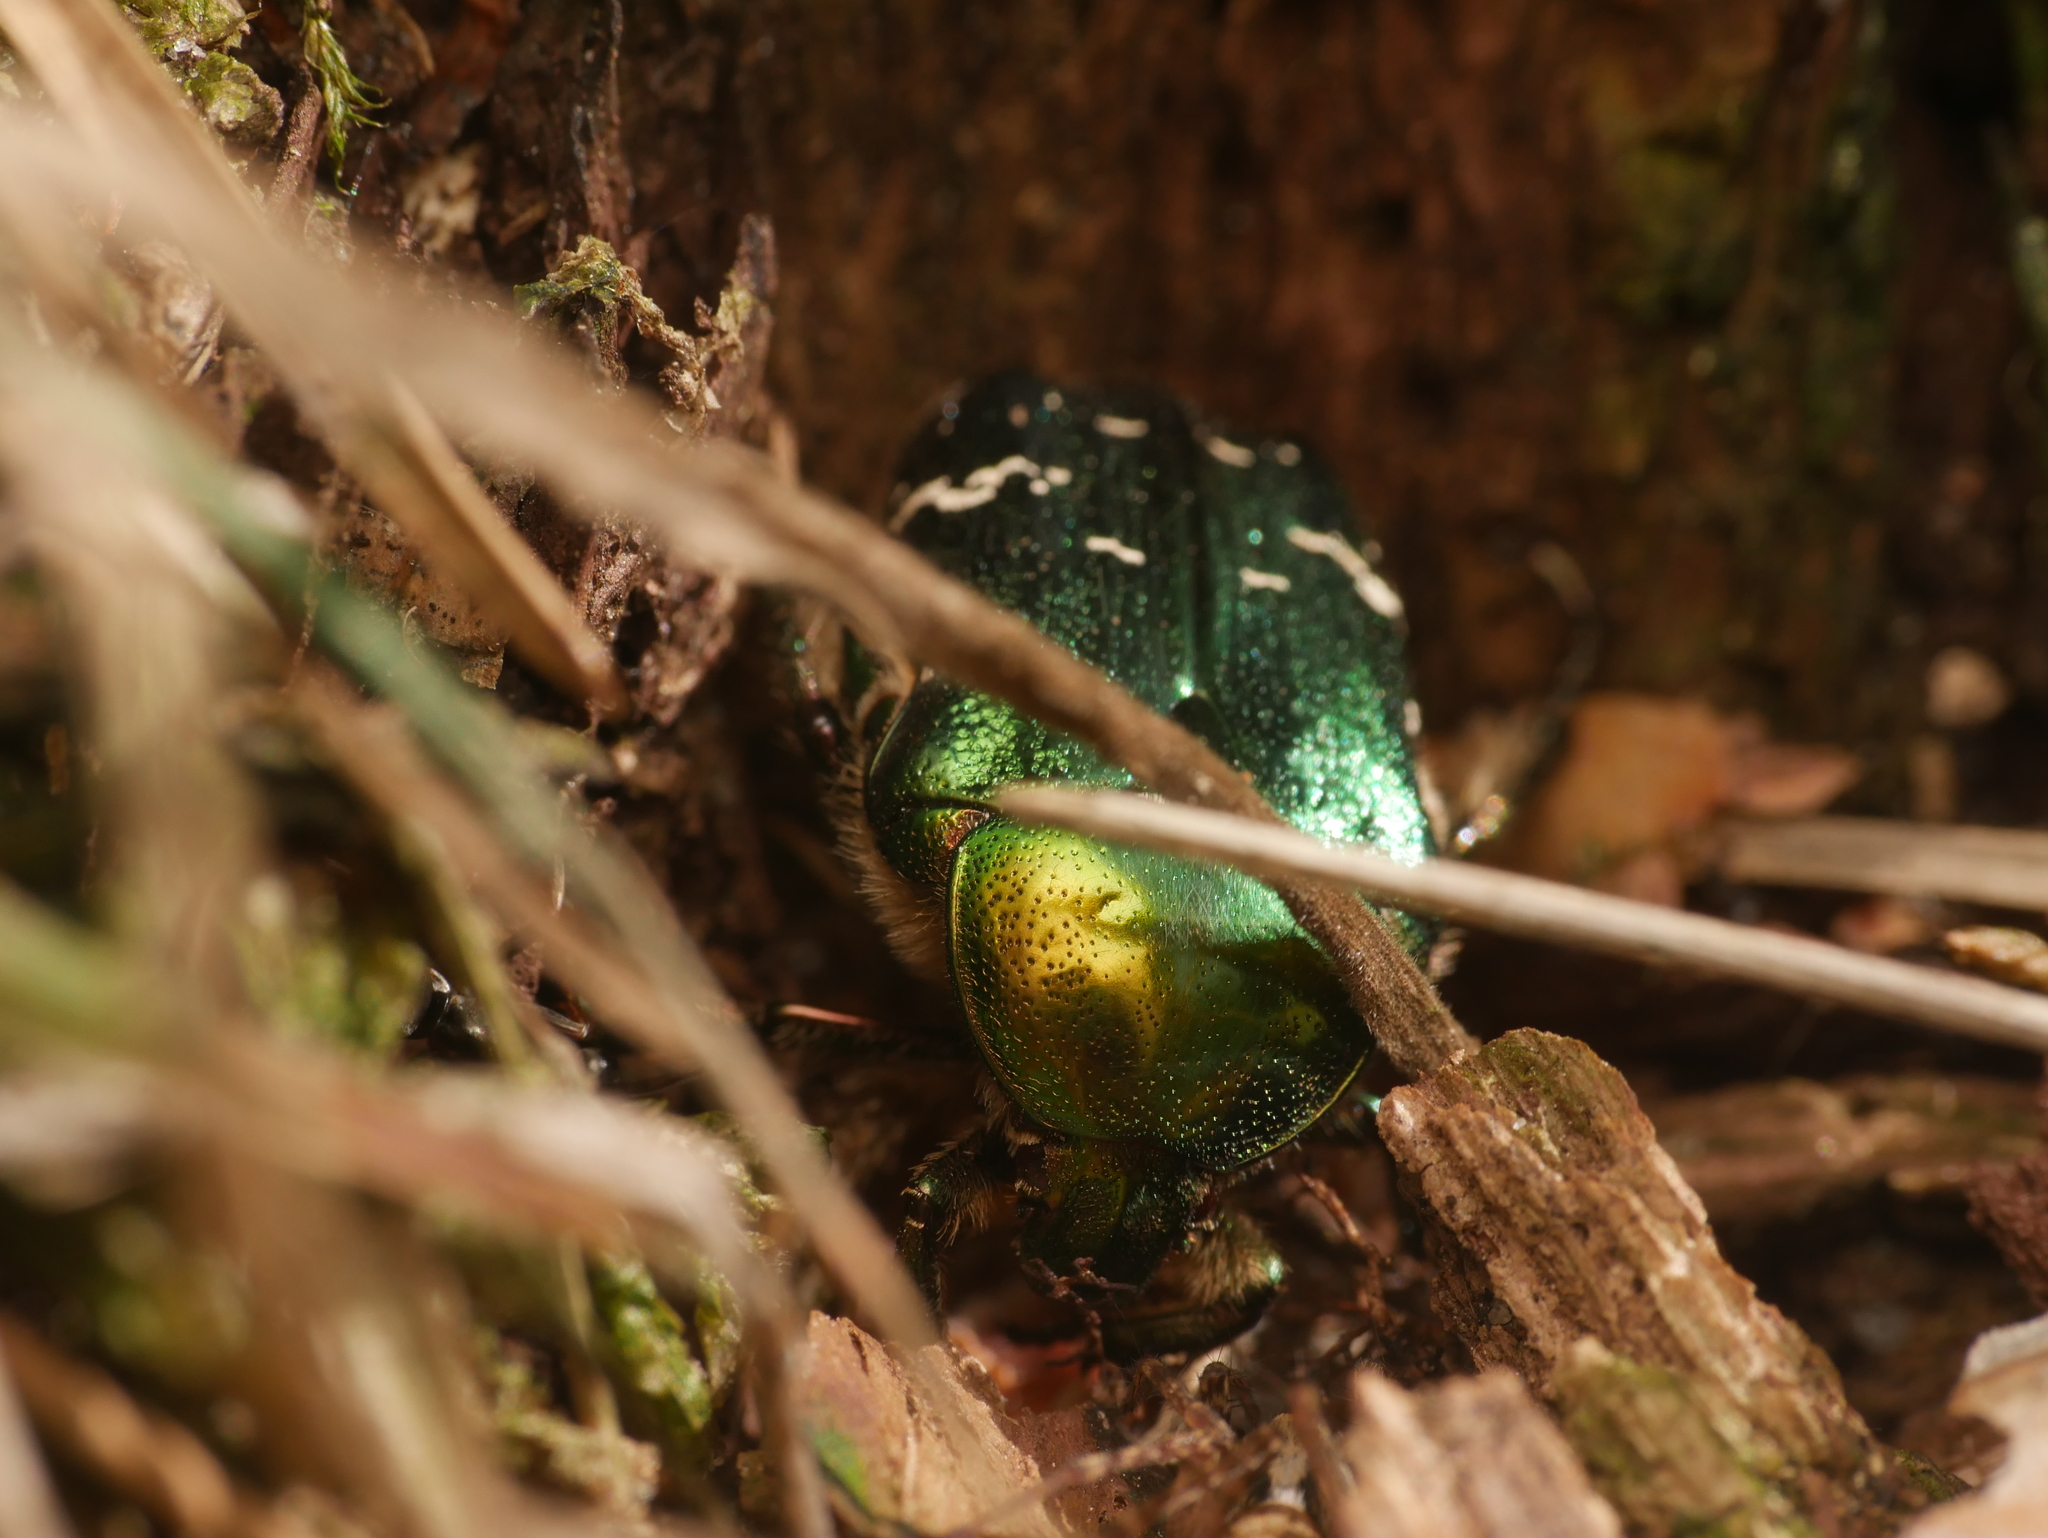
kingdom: Animalia
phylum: Arthropoda
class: Insecta
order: Coleoptera
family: Scarabaeidae
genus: Cetonia
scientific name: Cetonia aurata
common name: Rose chafer
